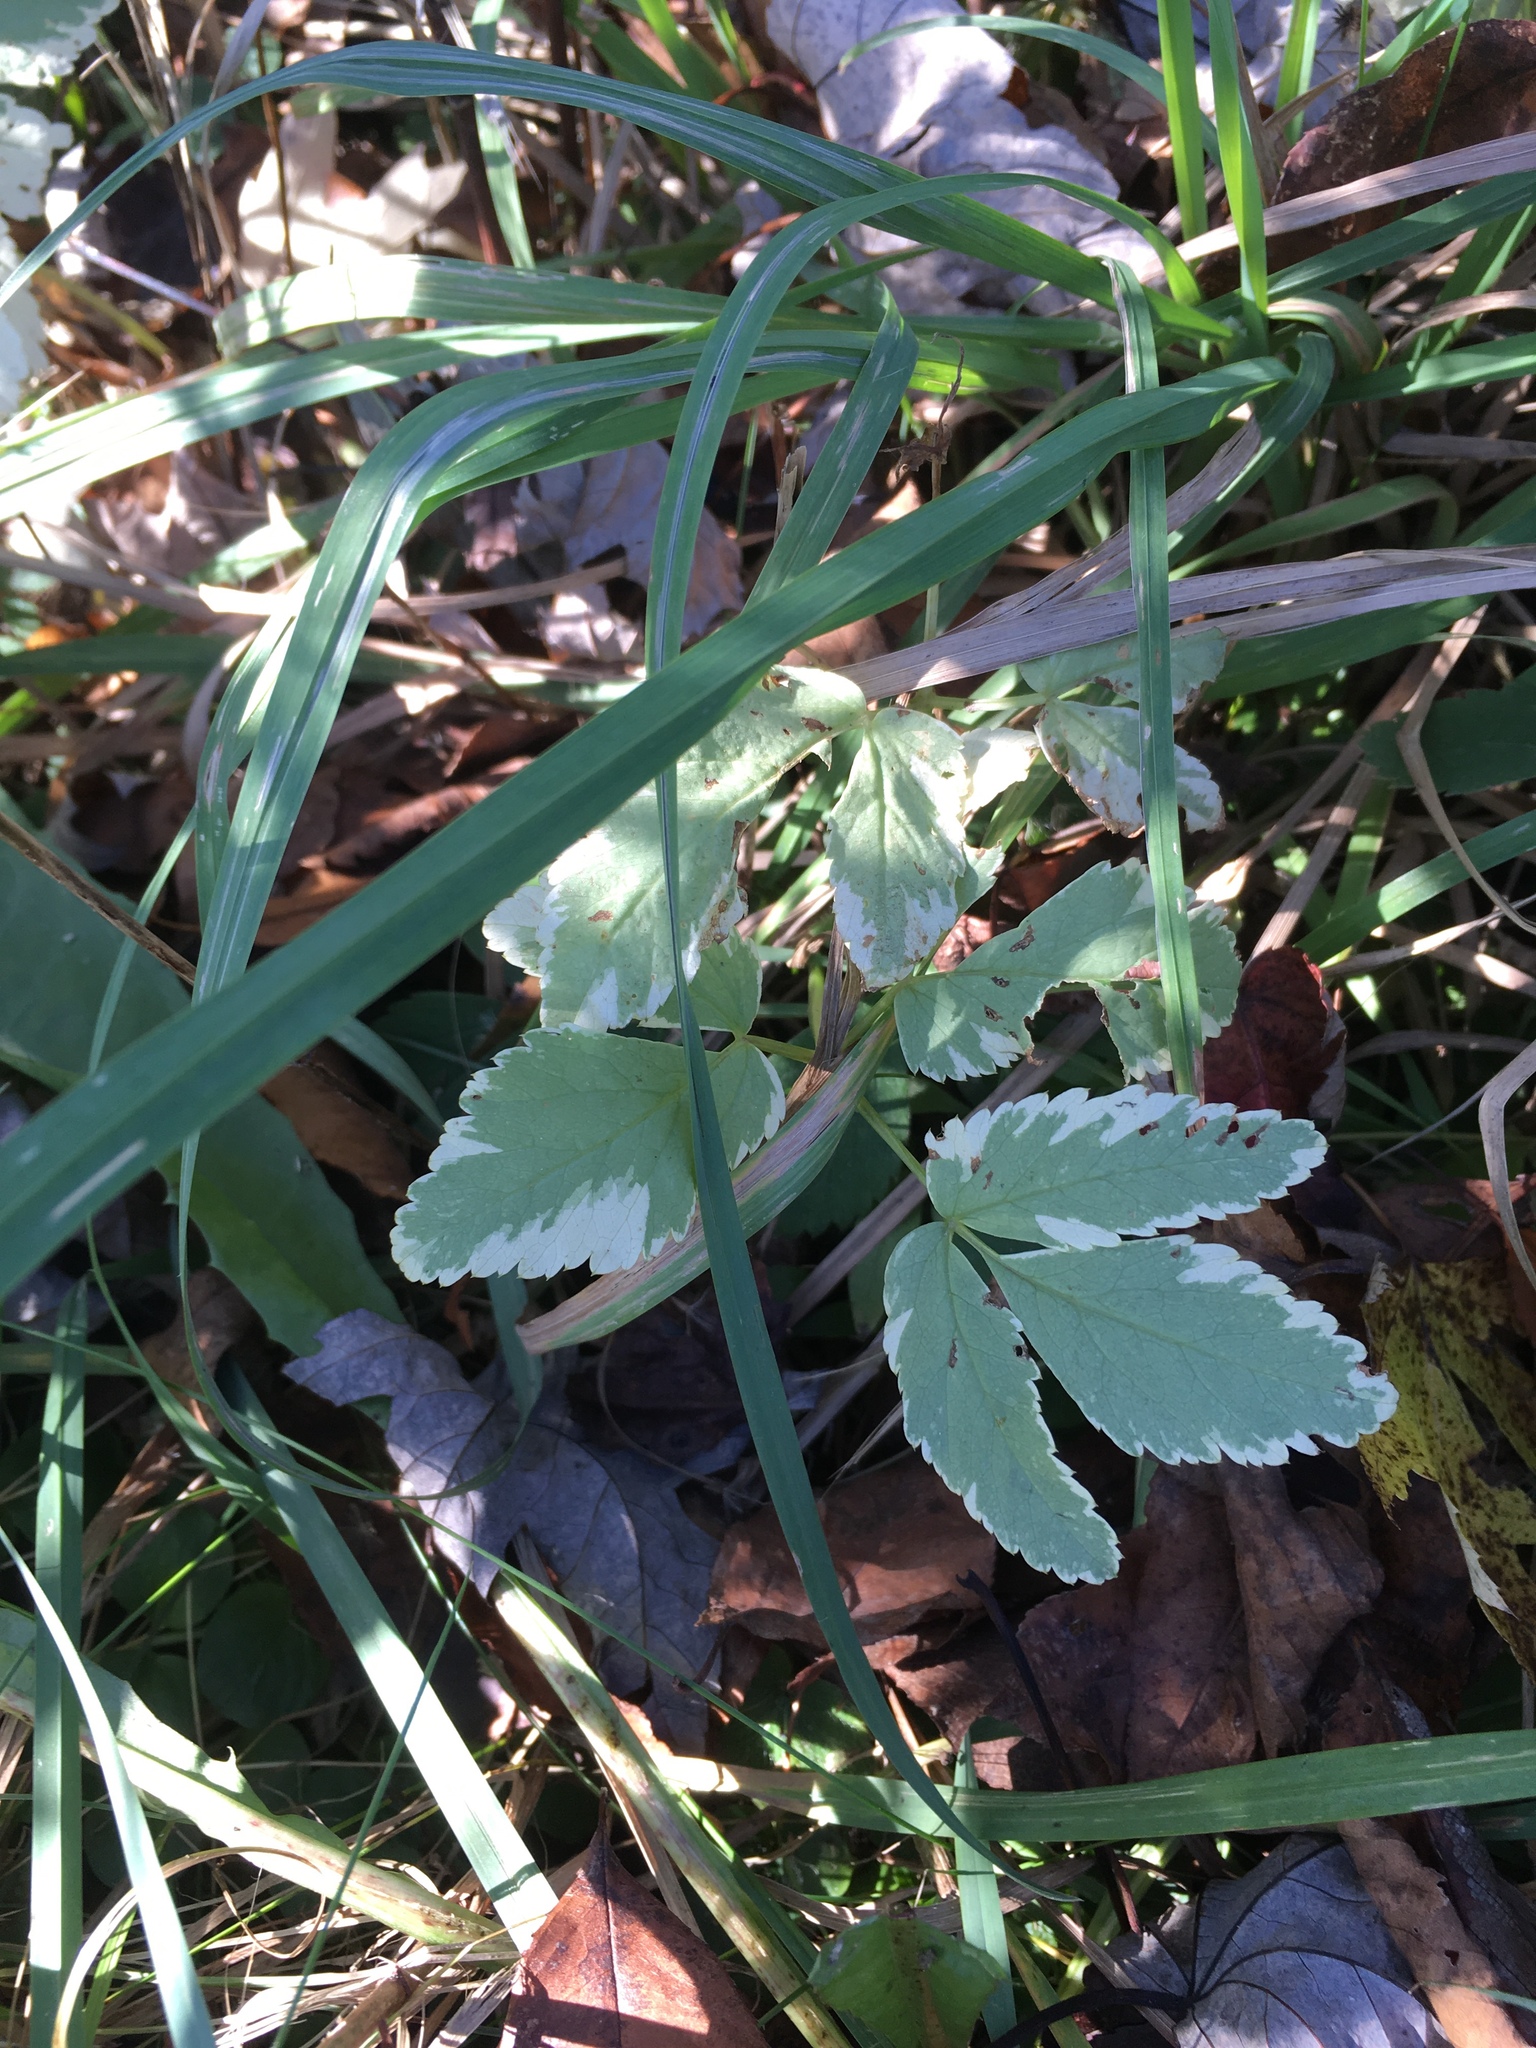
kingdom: Plantae
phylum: Tracheophyta
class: Magnoliopsida
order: Apiales
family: Apiaceae
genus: Aegopodium
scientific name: Aegopodium podagraria
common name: Ground-elder
